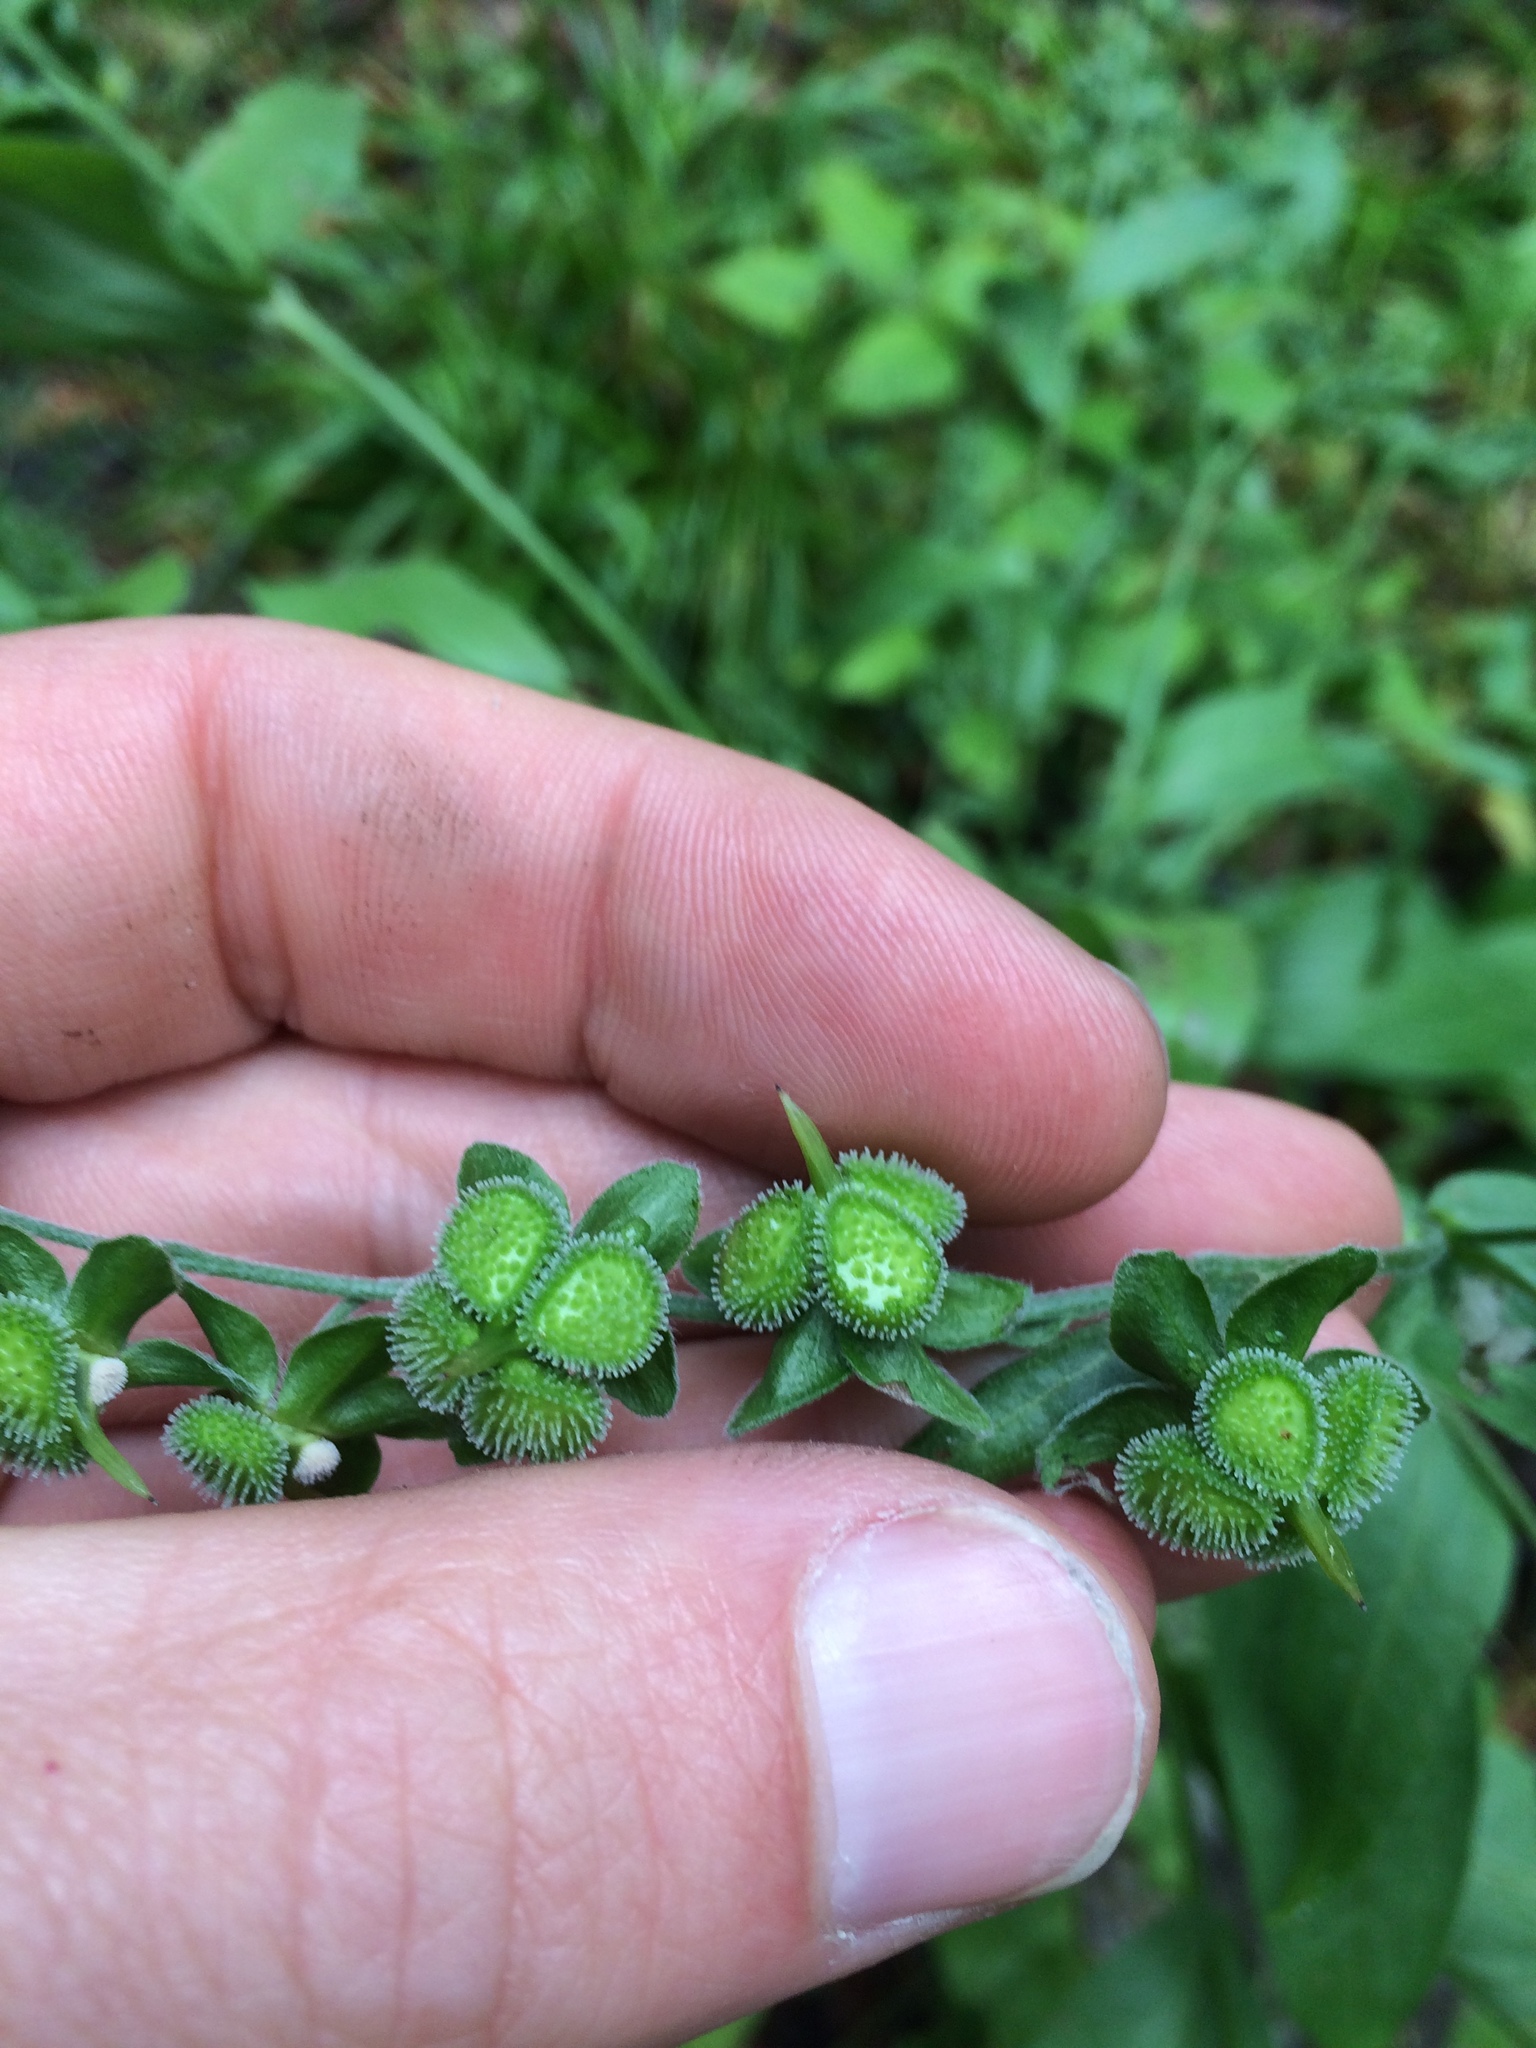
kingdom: Plantae
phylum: Tracheophyta
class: Magnoliopsida
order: Boraginales
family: Boraginaceae
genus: Cynoglossum
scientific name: Cynoglossum officinale
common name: Hound's-tongue
